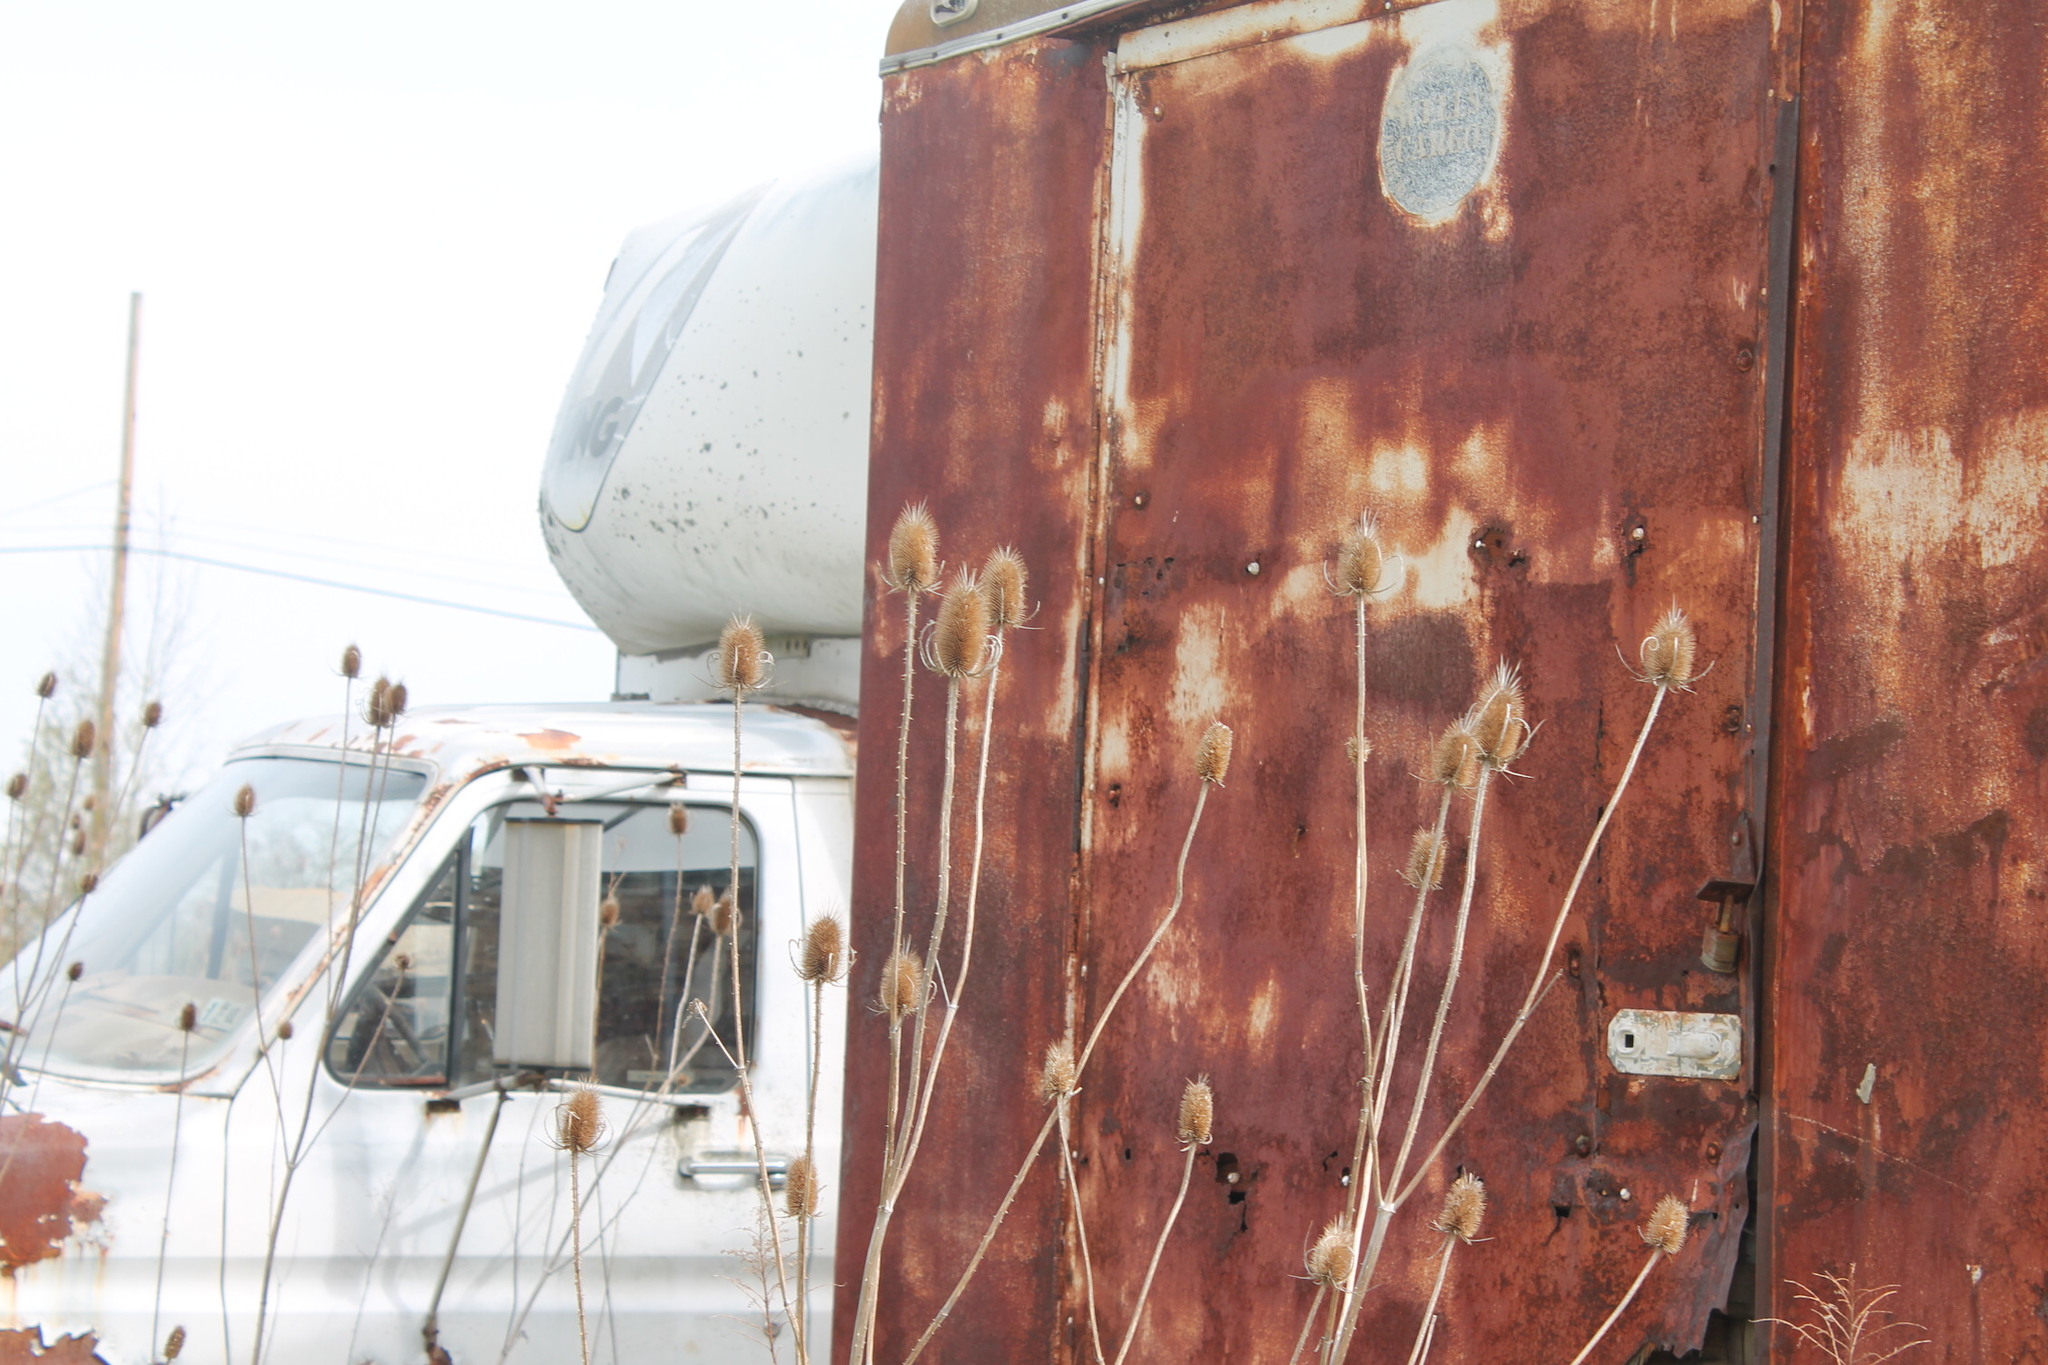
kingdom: Plantae
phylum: Tracheophyta
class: Magnoliopsida
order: Dipsacales
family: Caprifoliaceae
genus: Dipsacus
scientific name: Dipsacus fullonum
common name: Teasel
